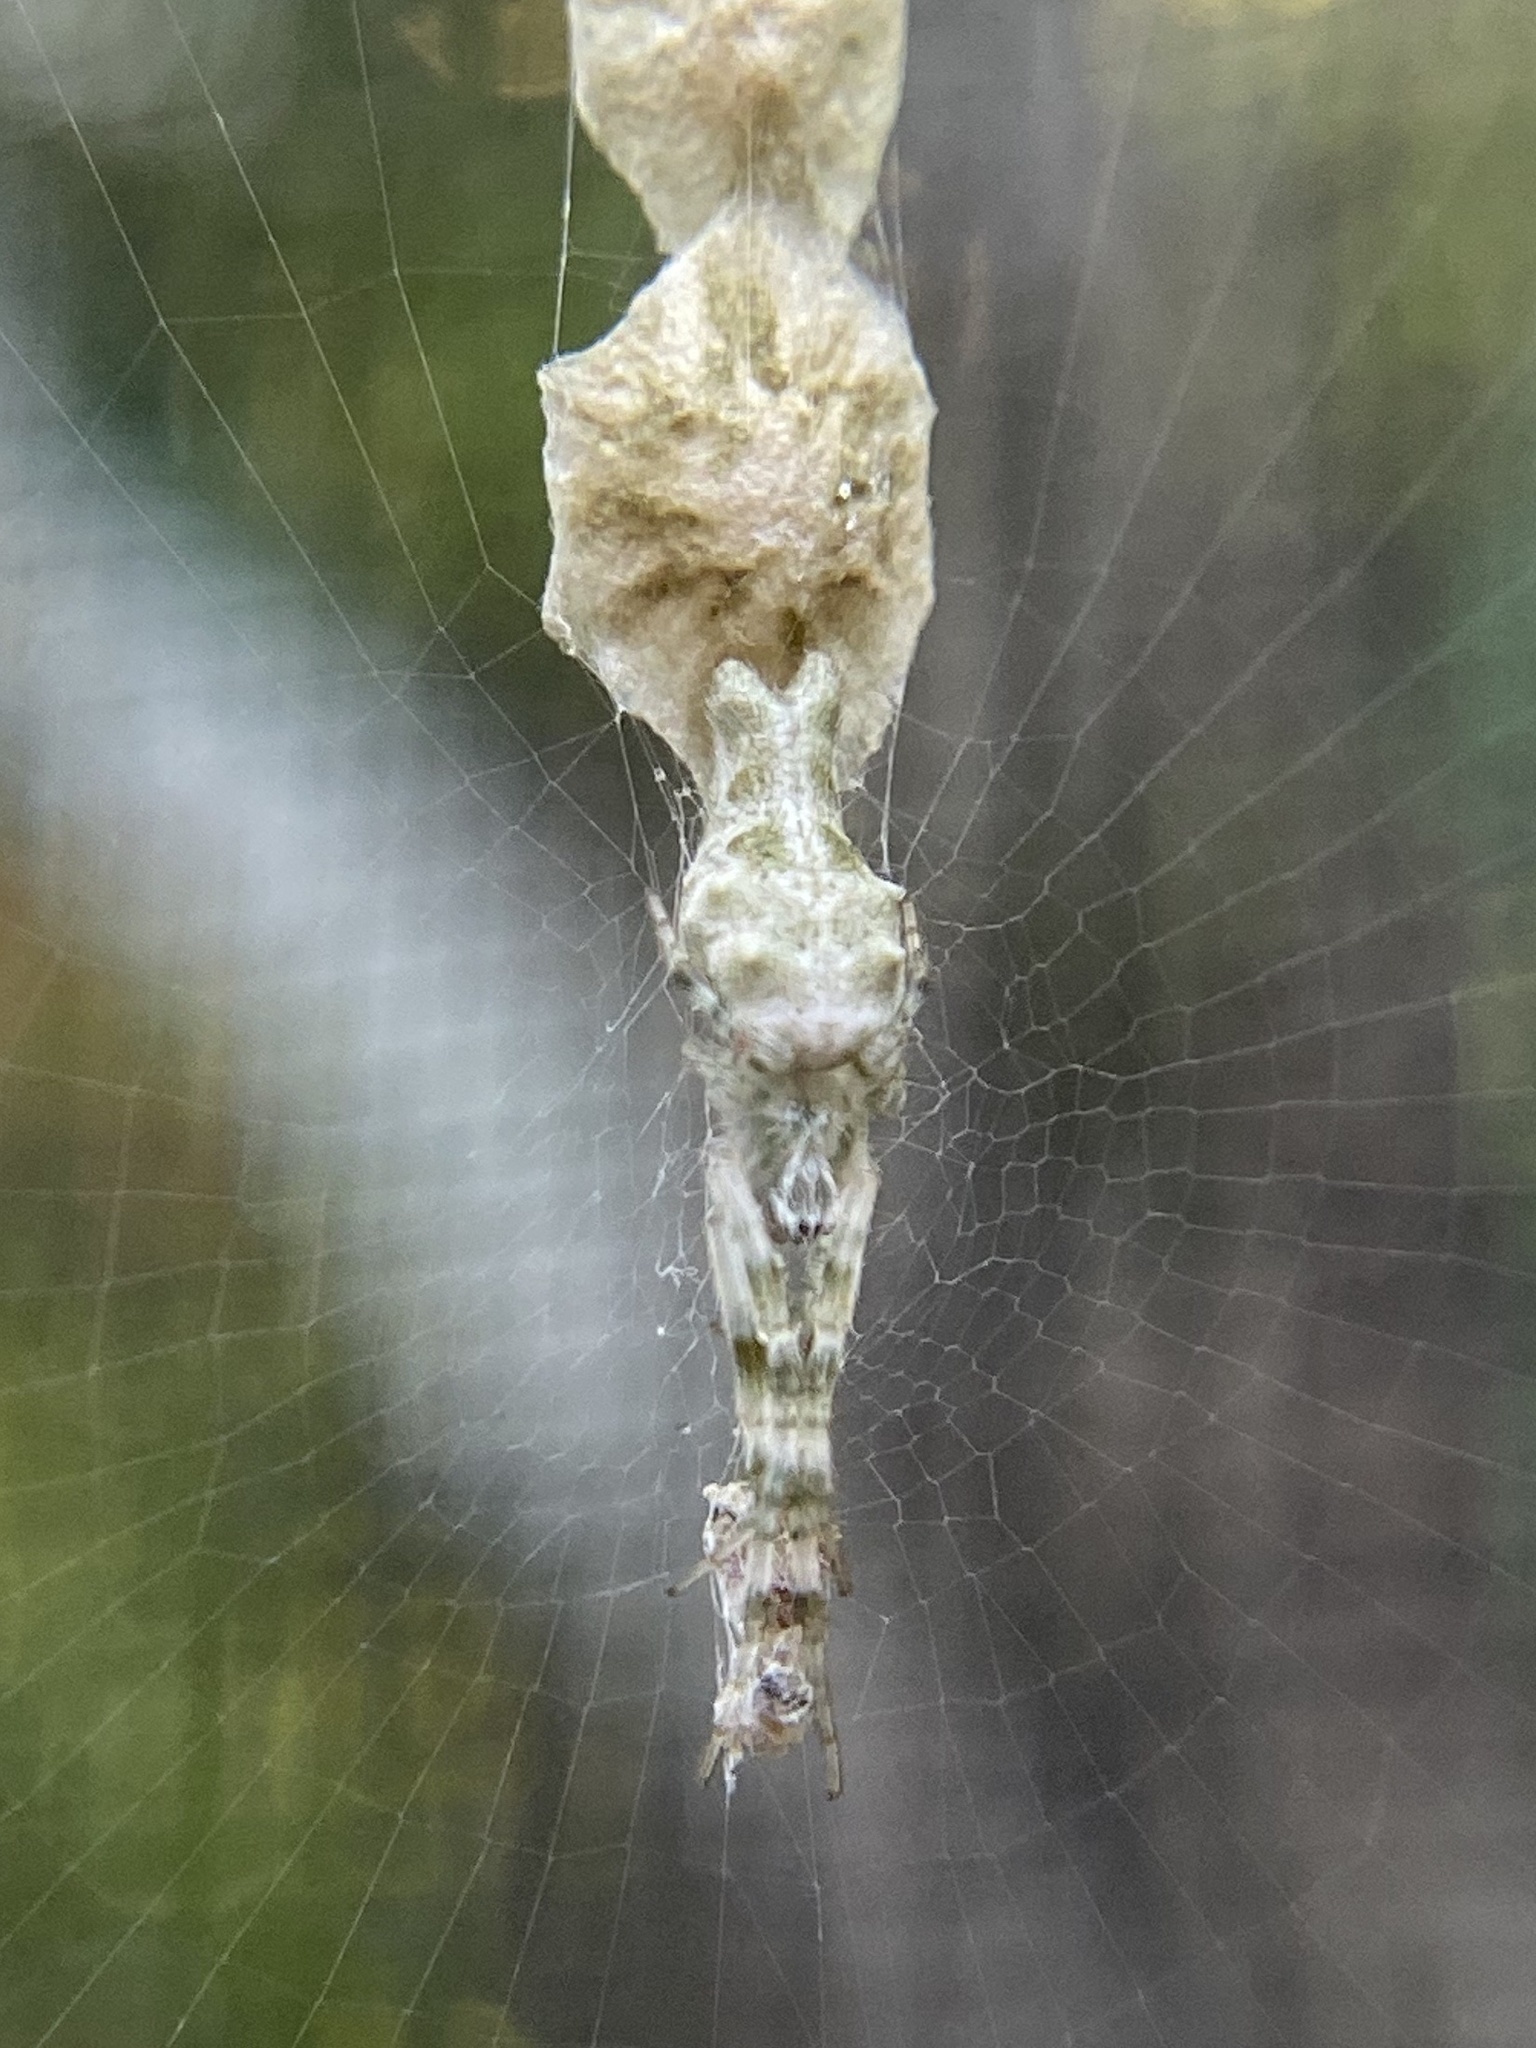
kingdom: Animalia
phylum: Arthropoda
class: Arachnida
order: Araneae
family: Araneidae
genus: Allocyclosa
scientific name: Allocyclosa bifurca
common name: Orb weavers
